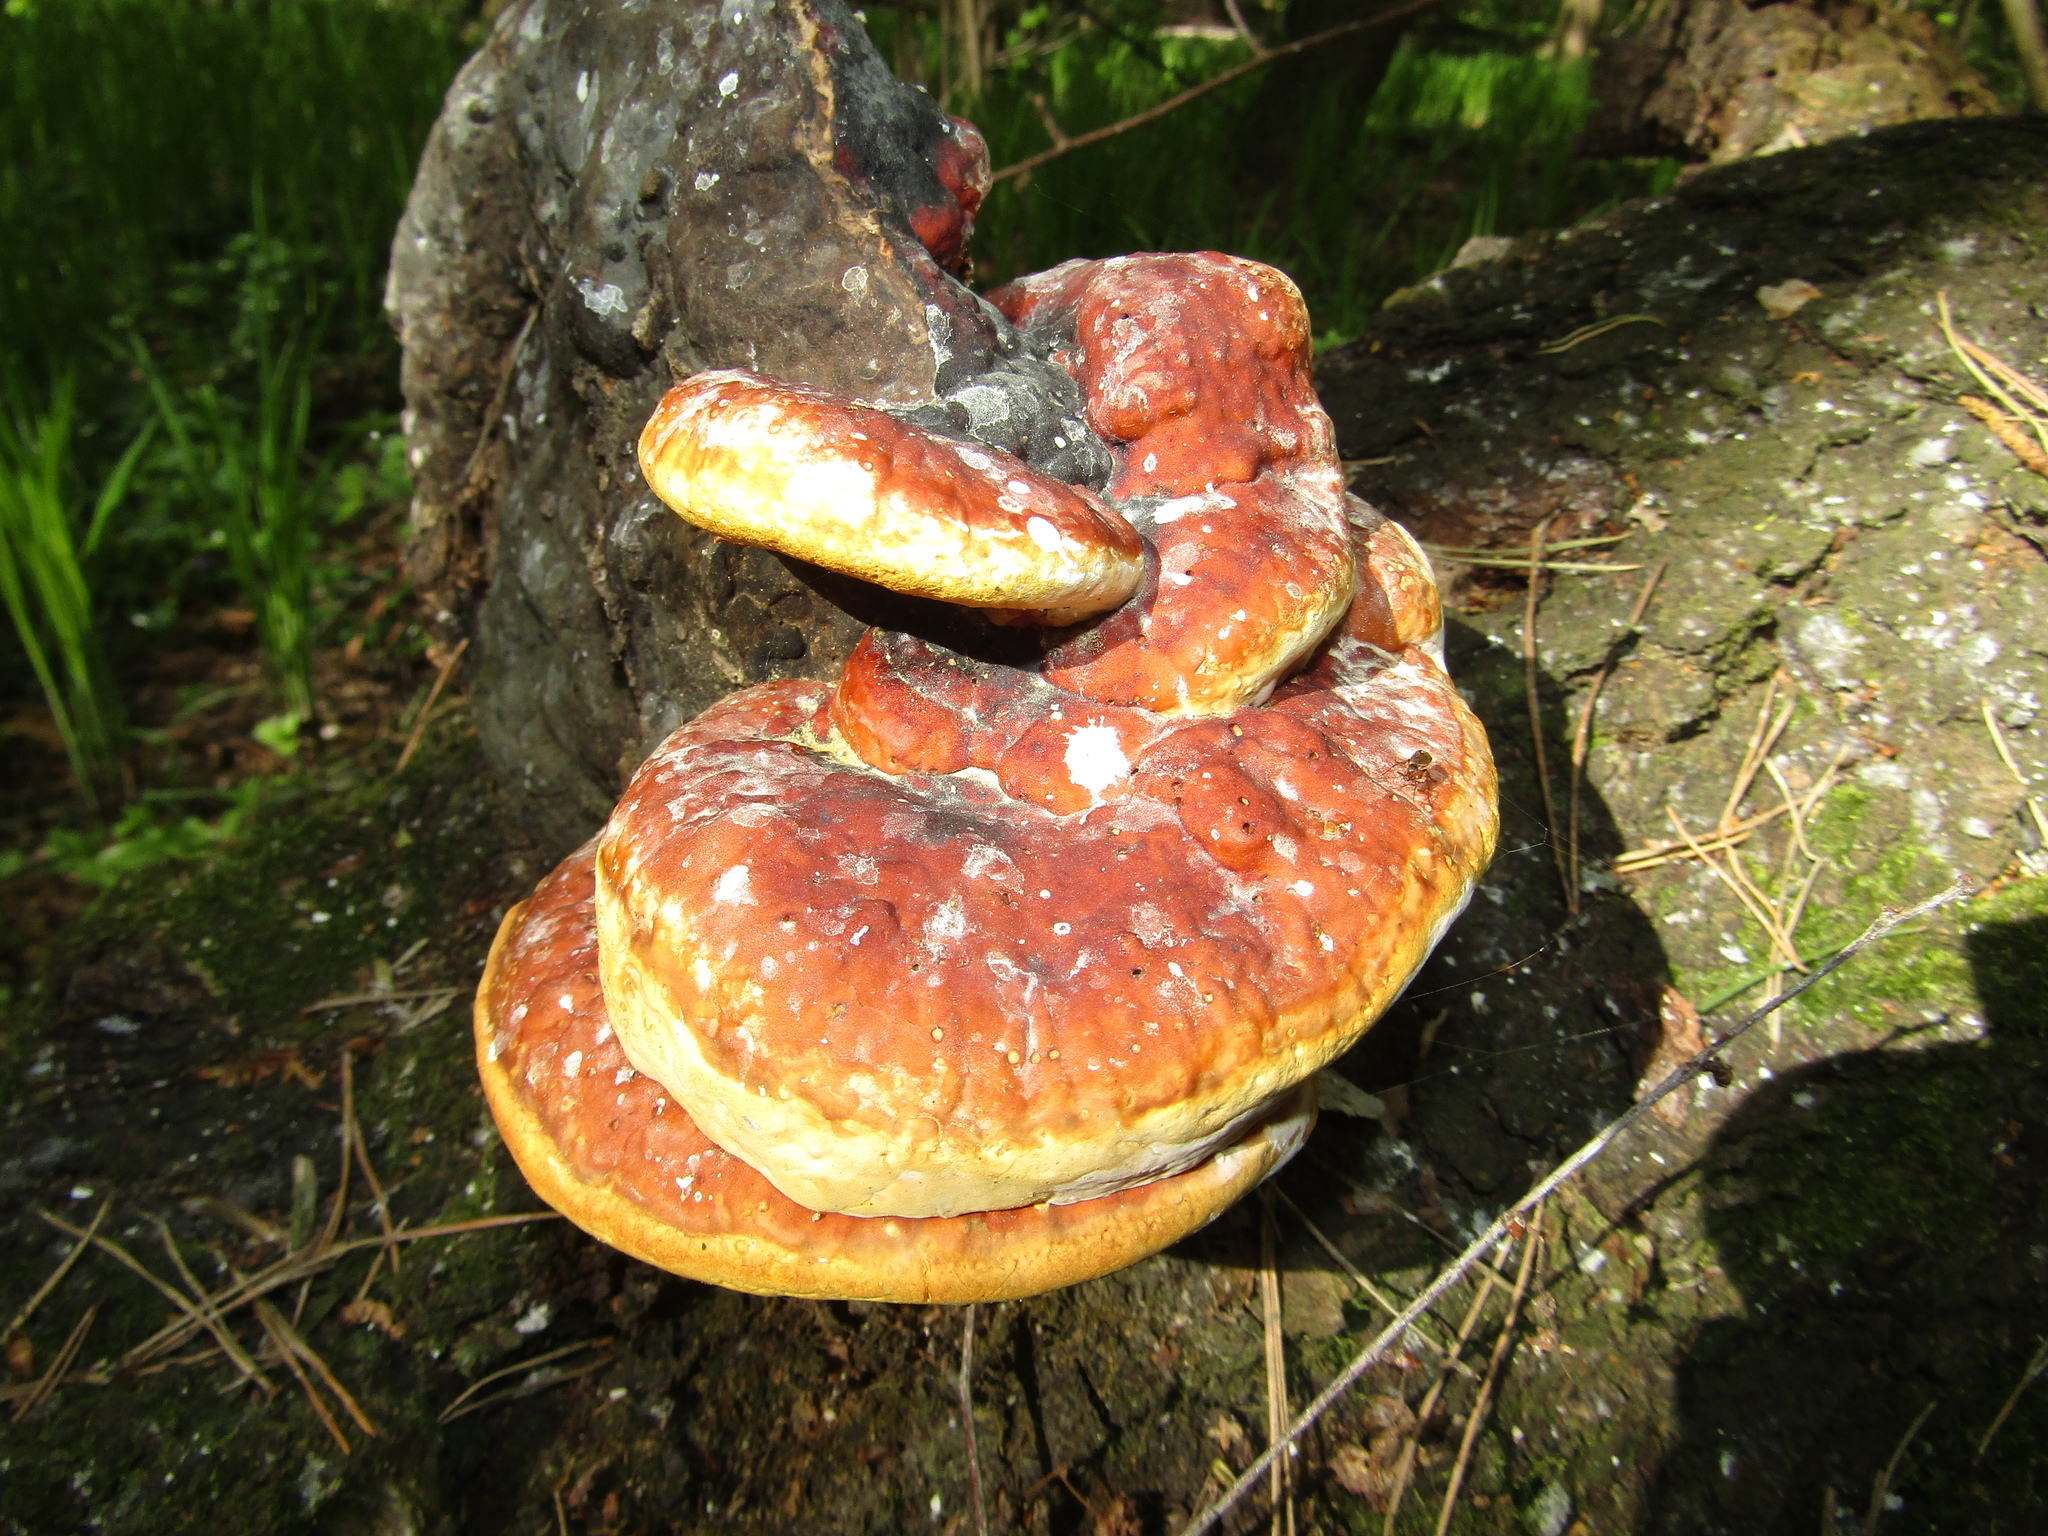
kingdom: Fungi
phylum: Basidiomycota
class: Agaricomycetes
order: Polyporales
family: Fomitopsidaceae
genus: Fomitopsis
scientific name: Fomitopsis pinicola
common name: Red-belted bracket
